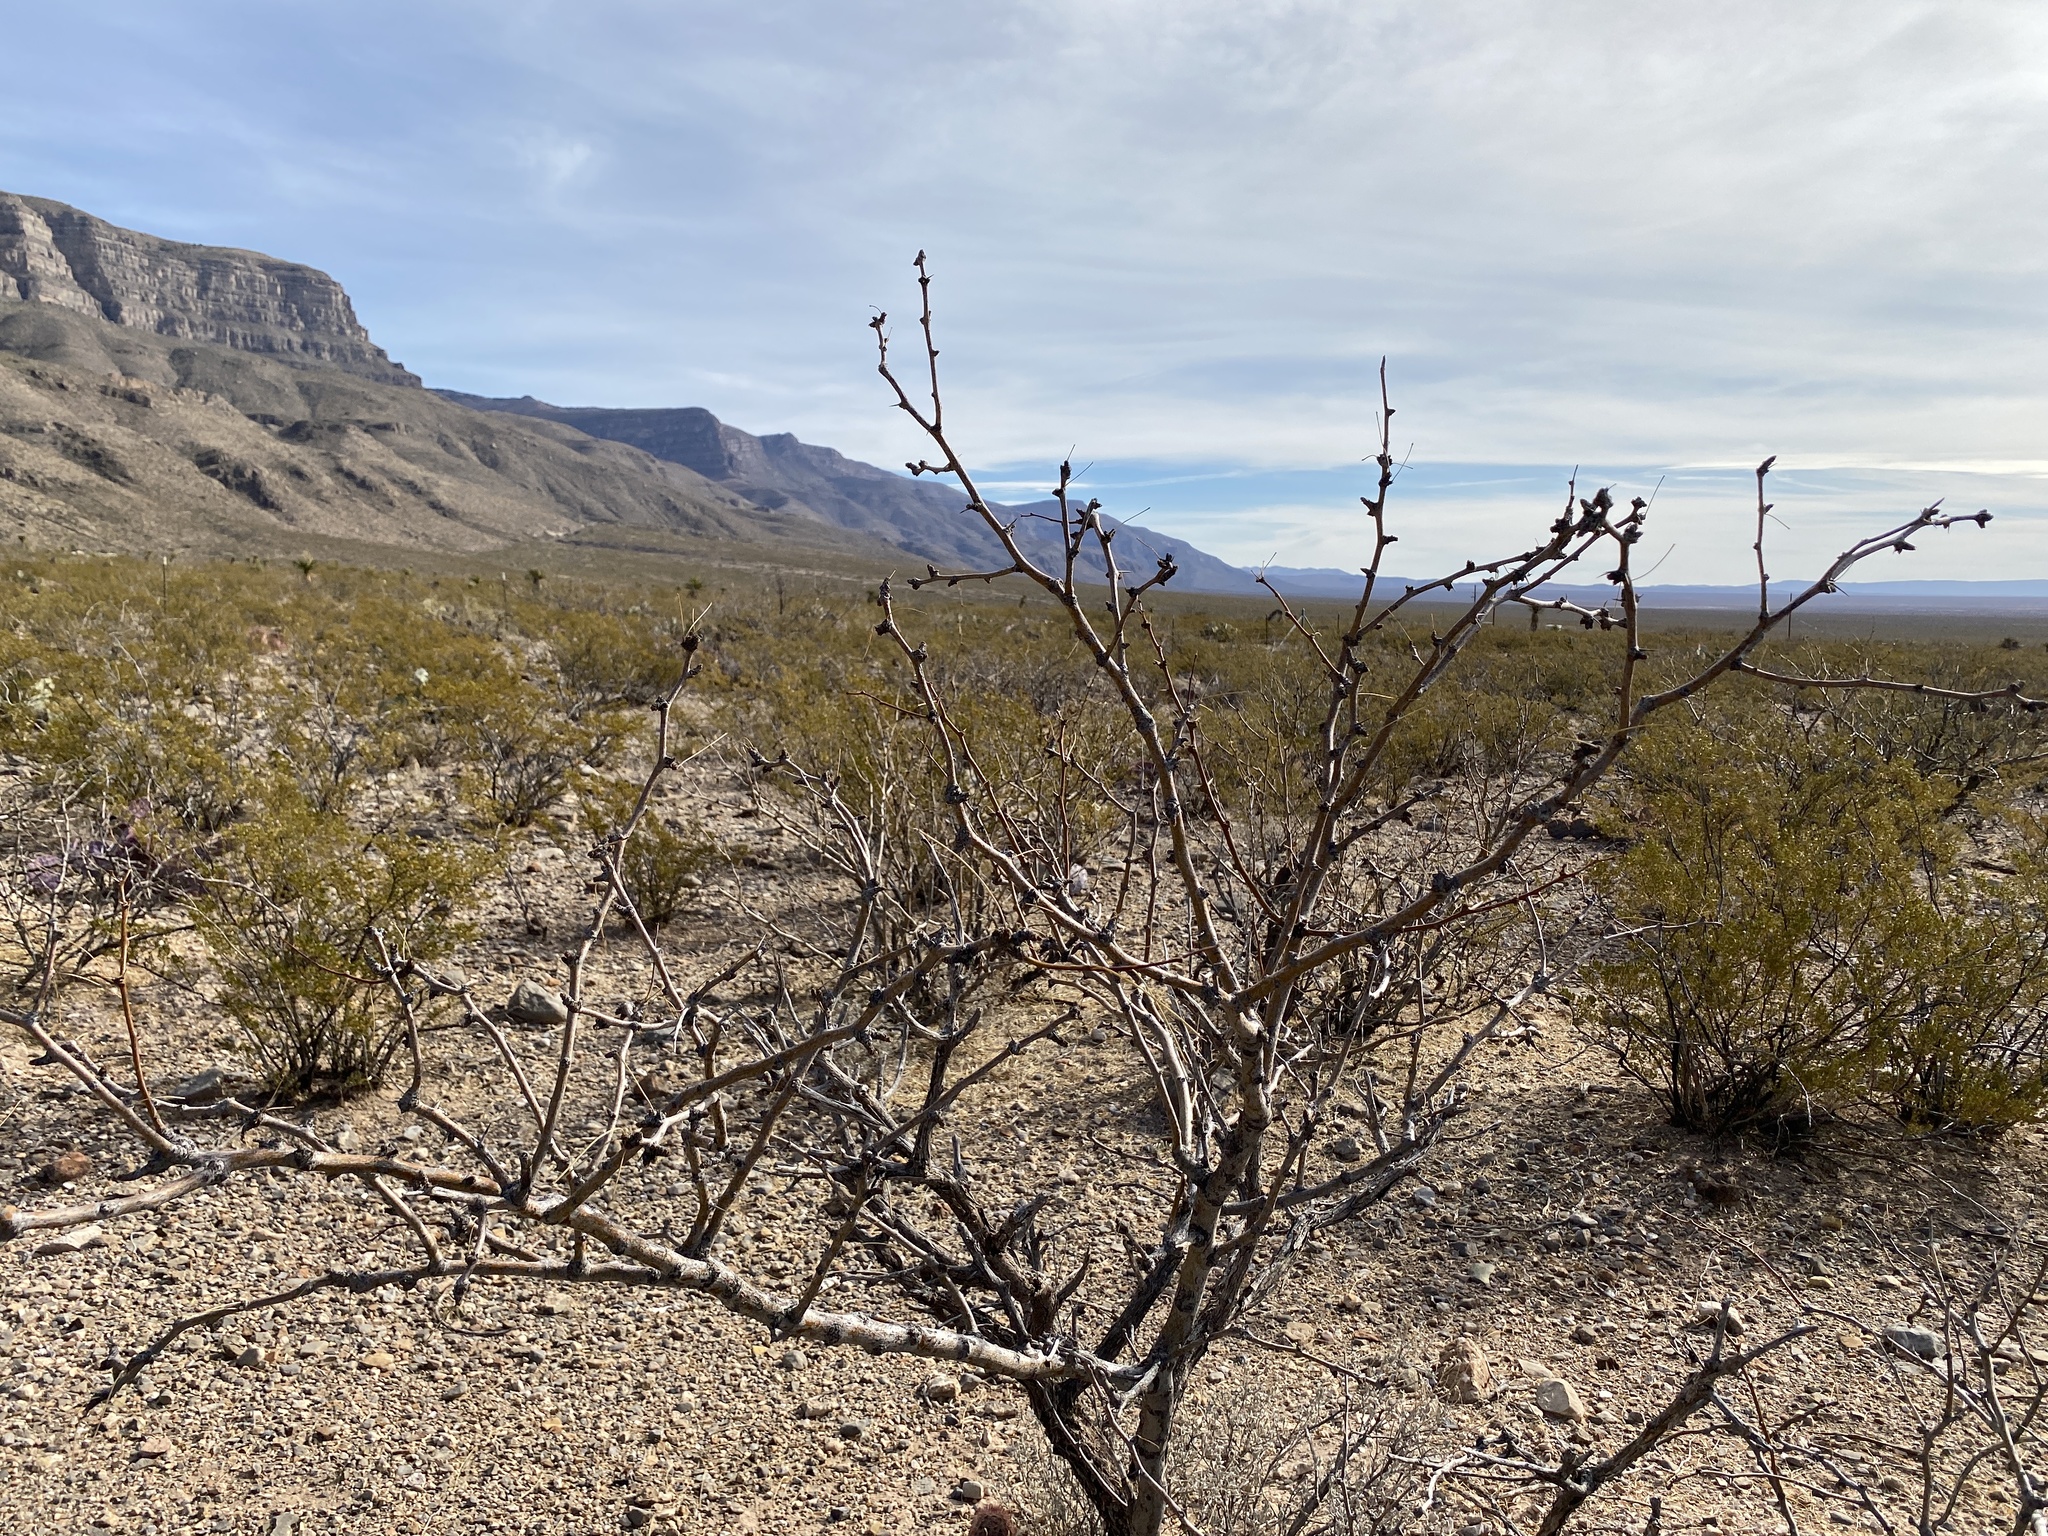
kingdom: Plantae
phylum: Tracheophyta
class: Magnoliopsida
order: Fabales
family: Fabaceae
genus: Prosopis
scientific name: Prosopis glandulosa
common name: Honey mesquite
